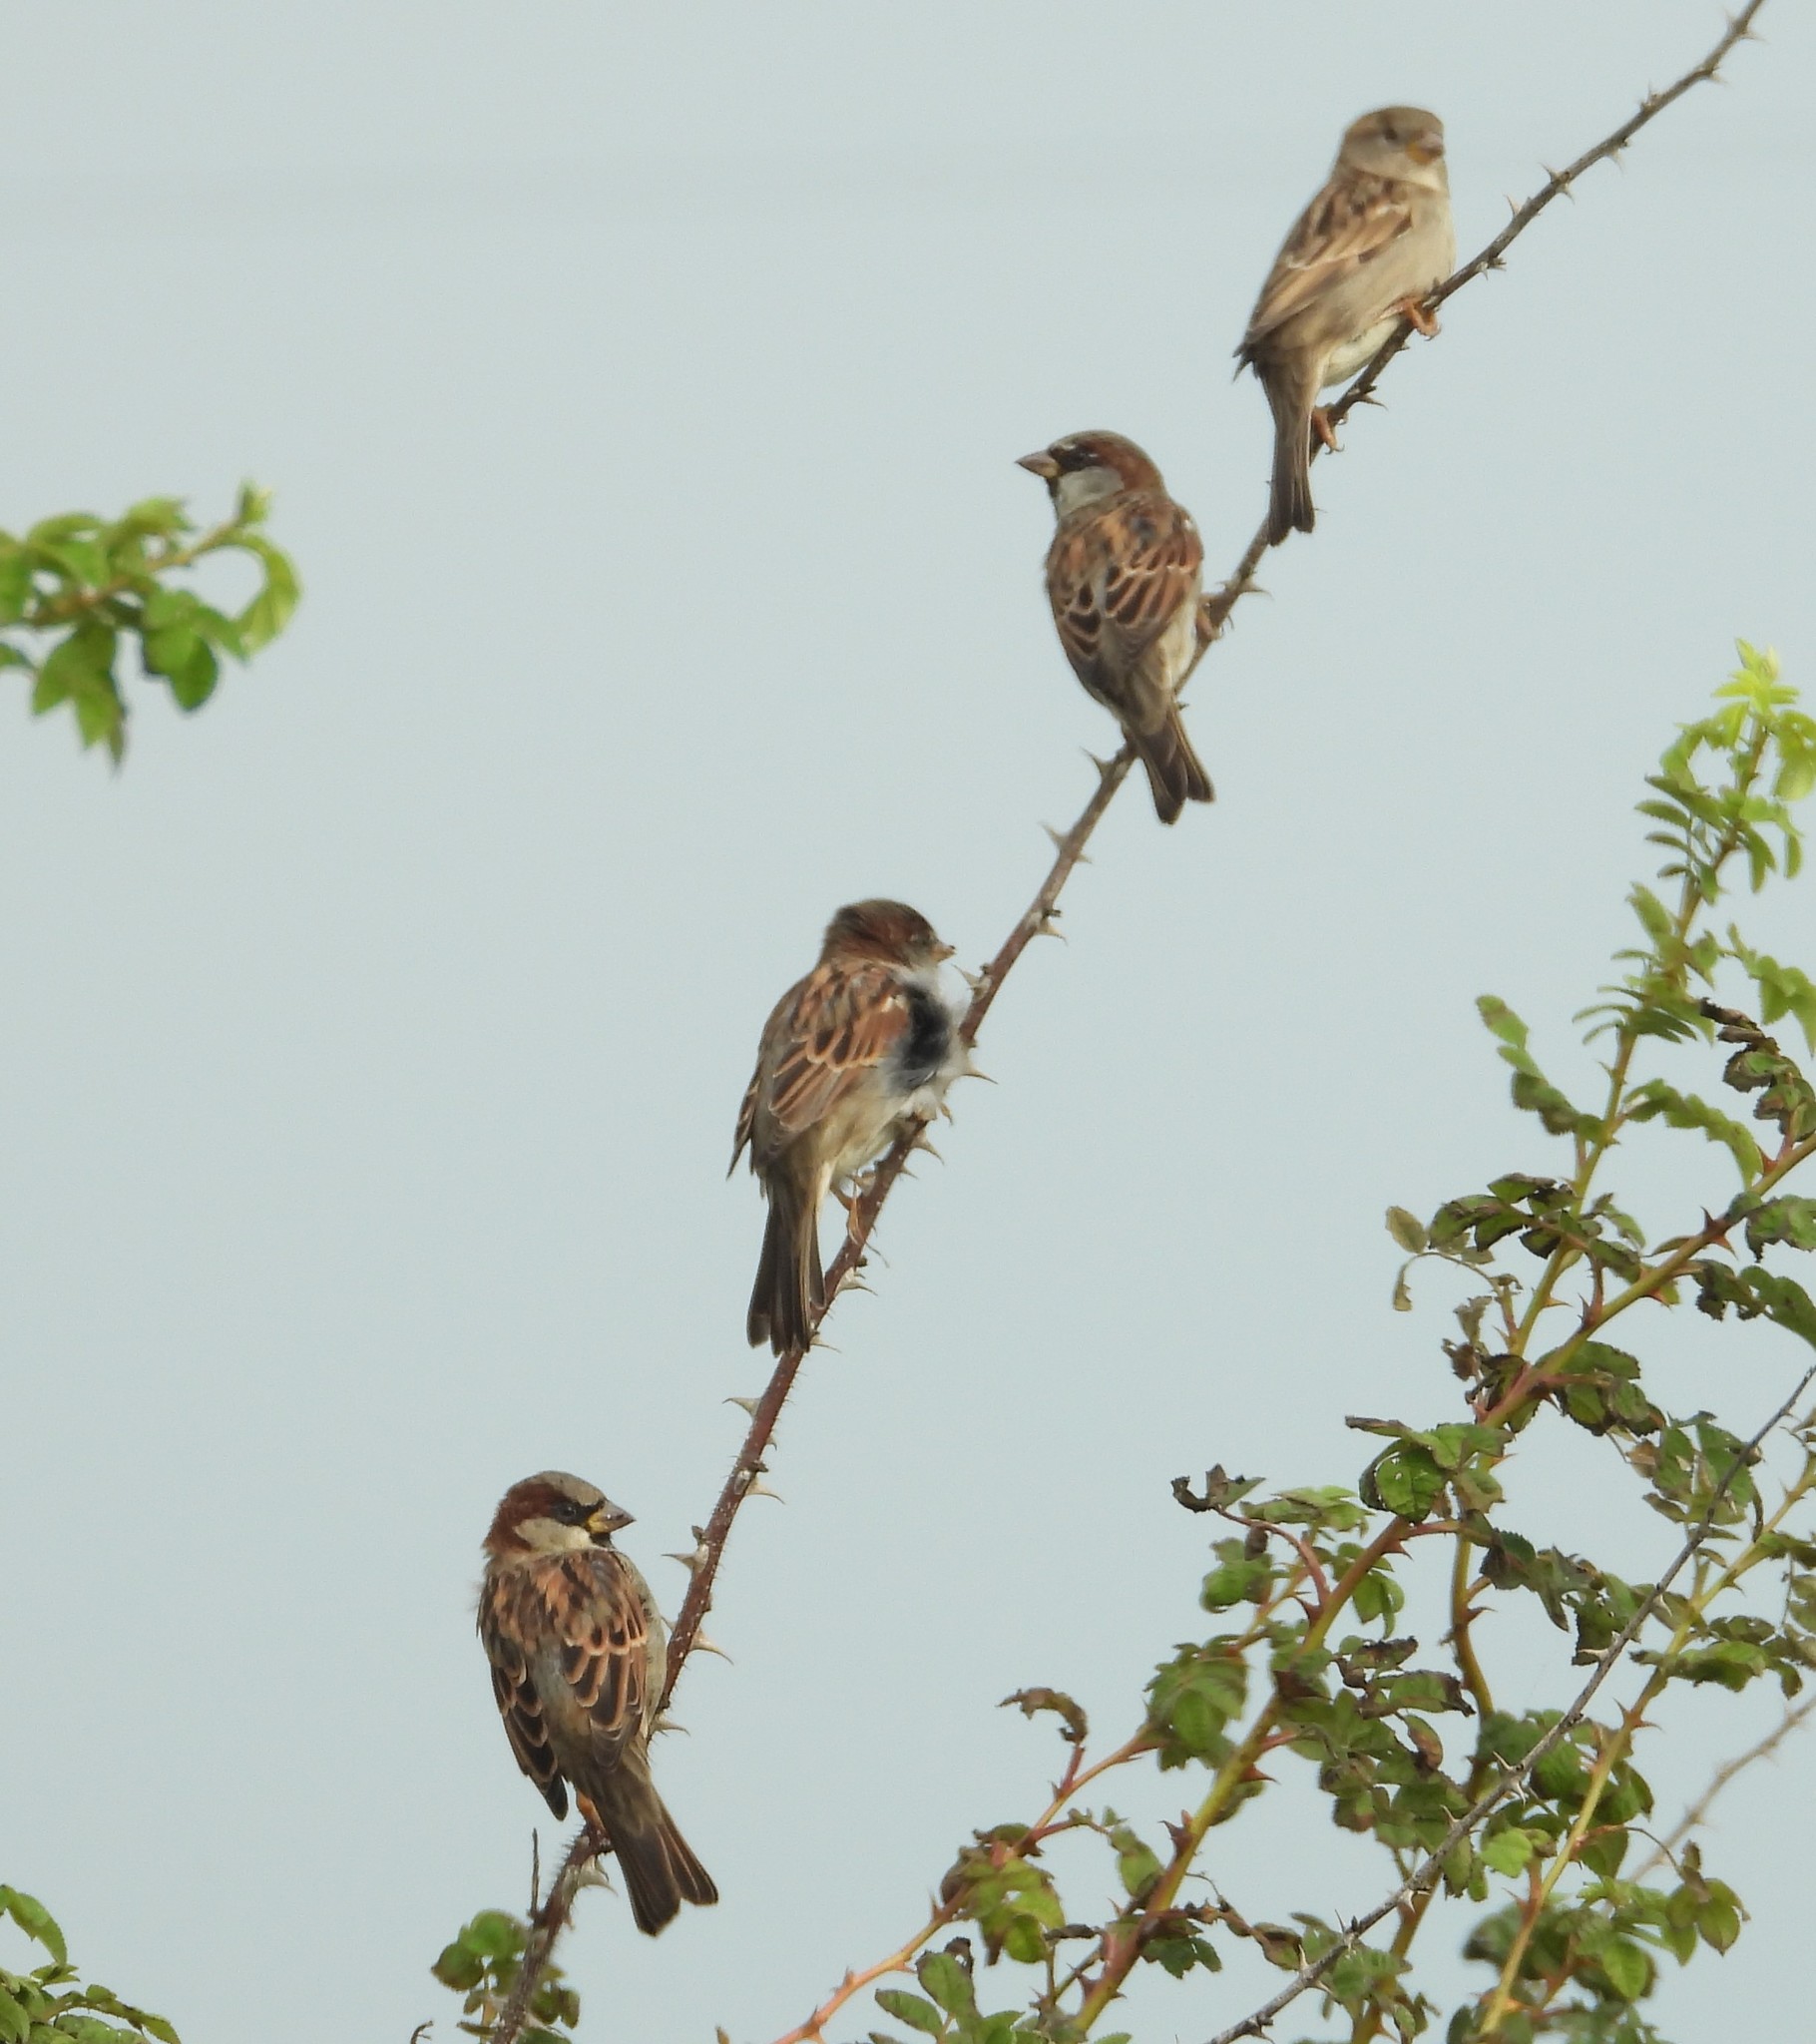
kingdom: Animalia
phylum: Chordata
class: Aves
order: Passeriformes
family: Passeridae
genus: Passer
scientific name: Passer domesticus
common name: House sparrow
